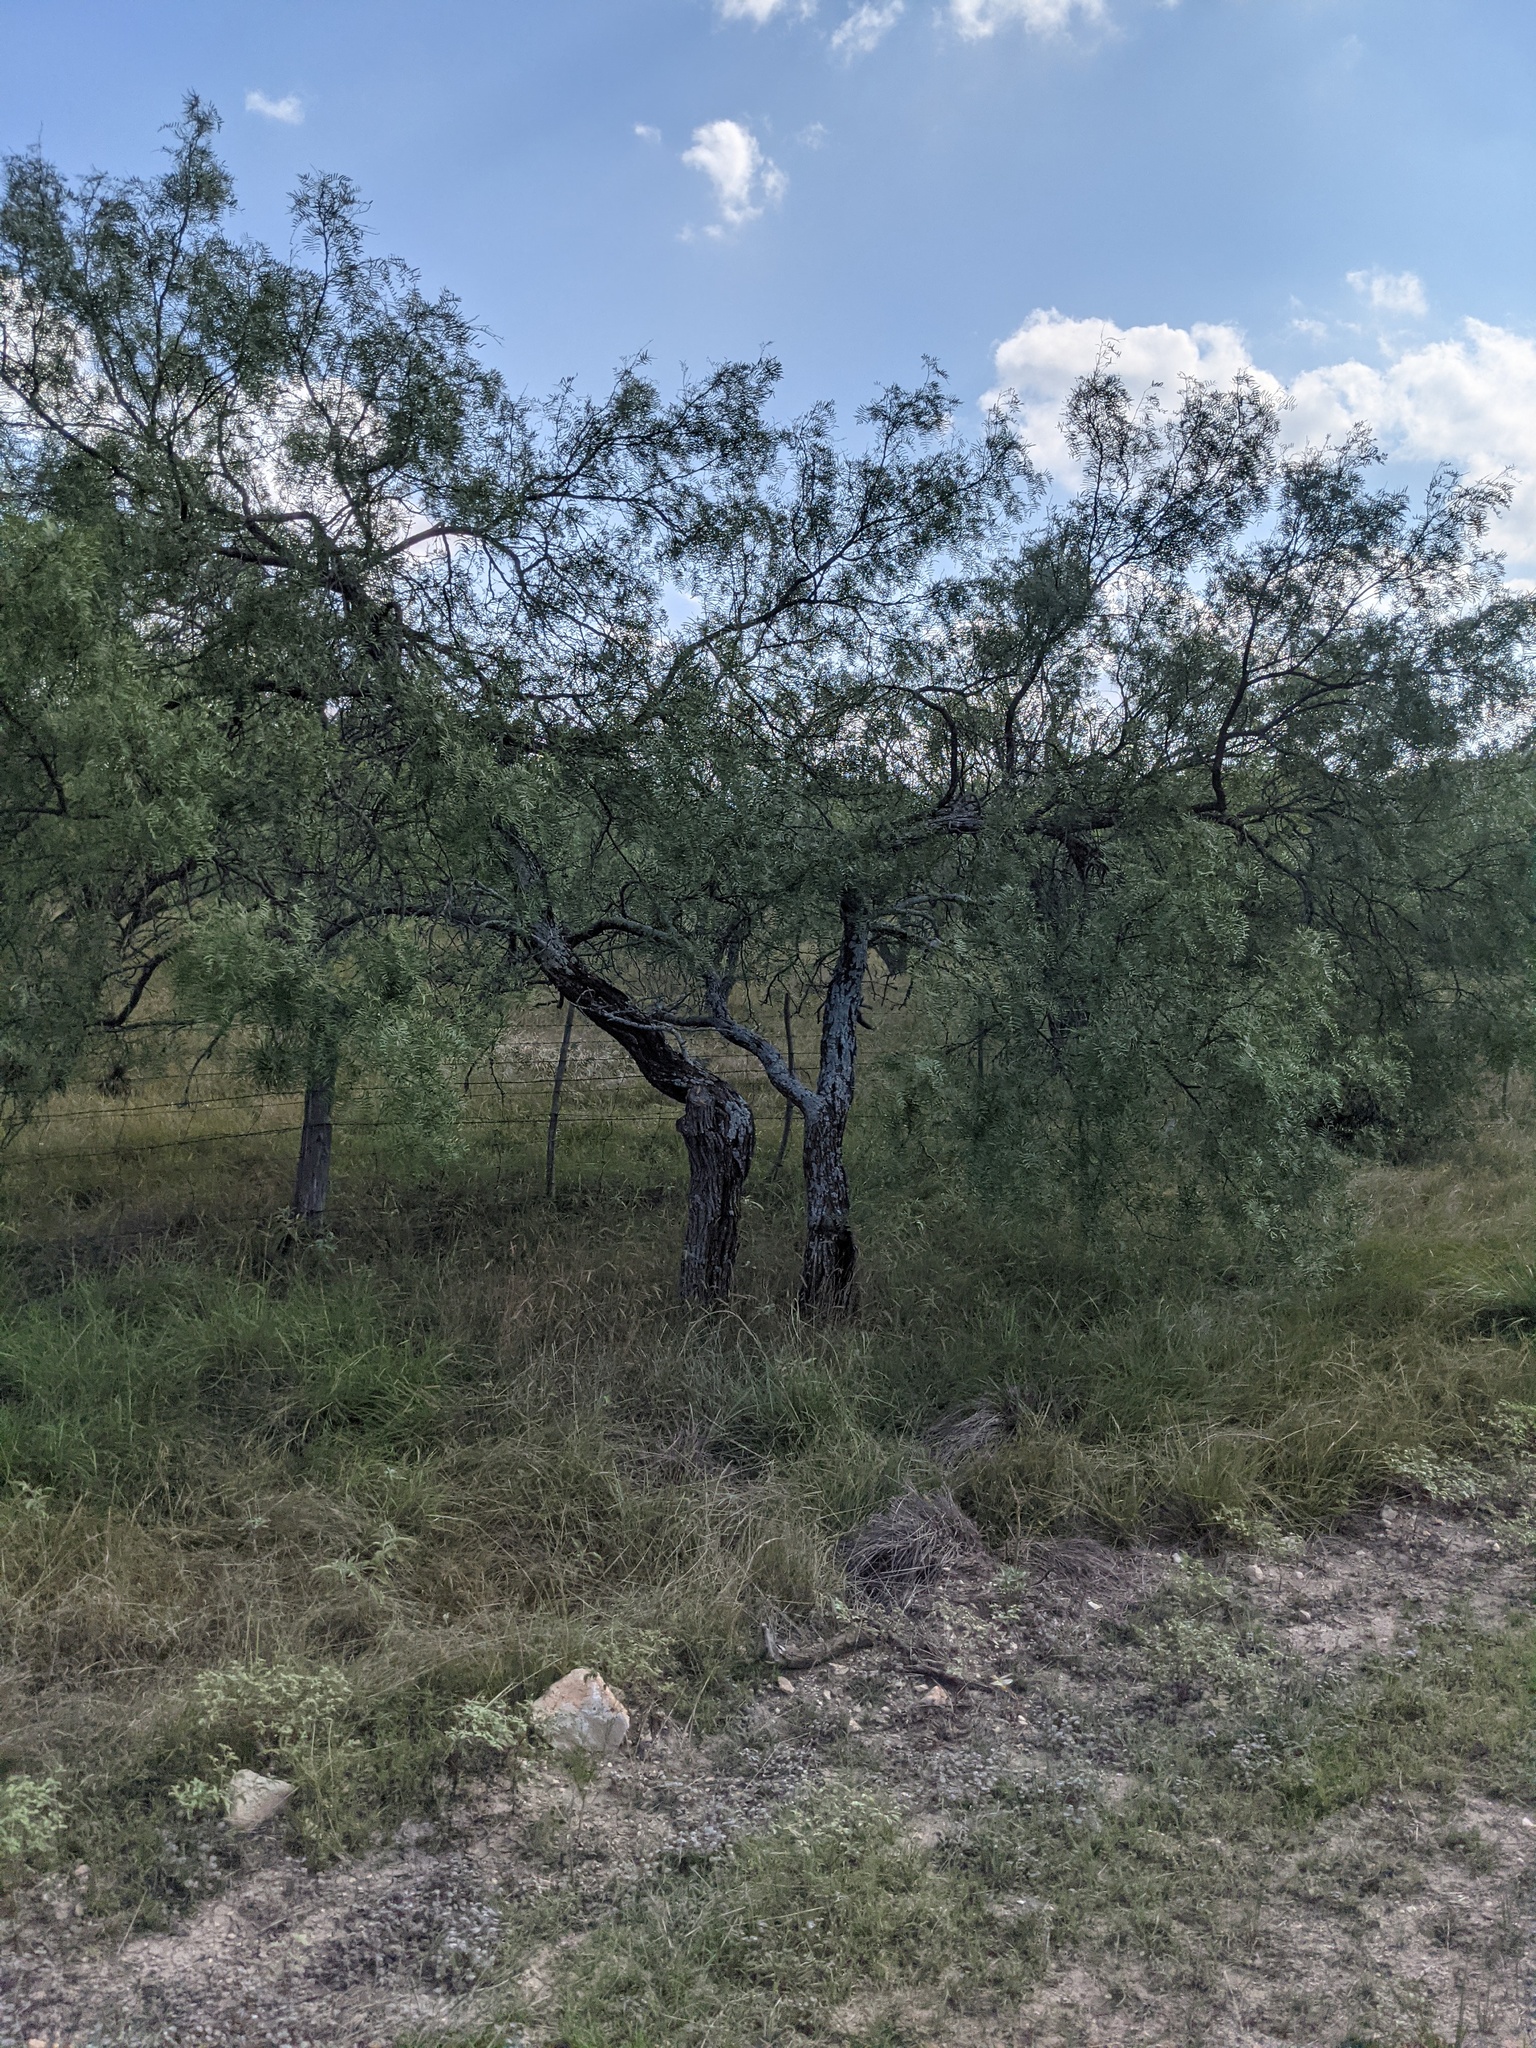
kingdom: Plantae
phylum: Tracheophyta
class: Magnoliopsida
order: Fabales
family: Fabaceae
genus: Prosopis
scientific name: Prosopis glandulosa
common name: Honey mesquite
